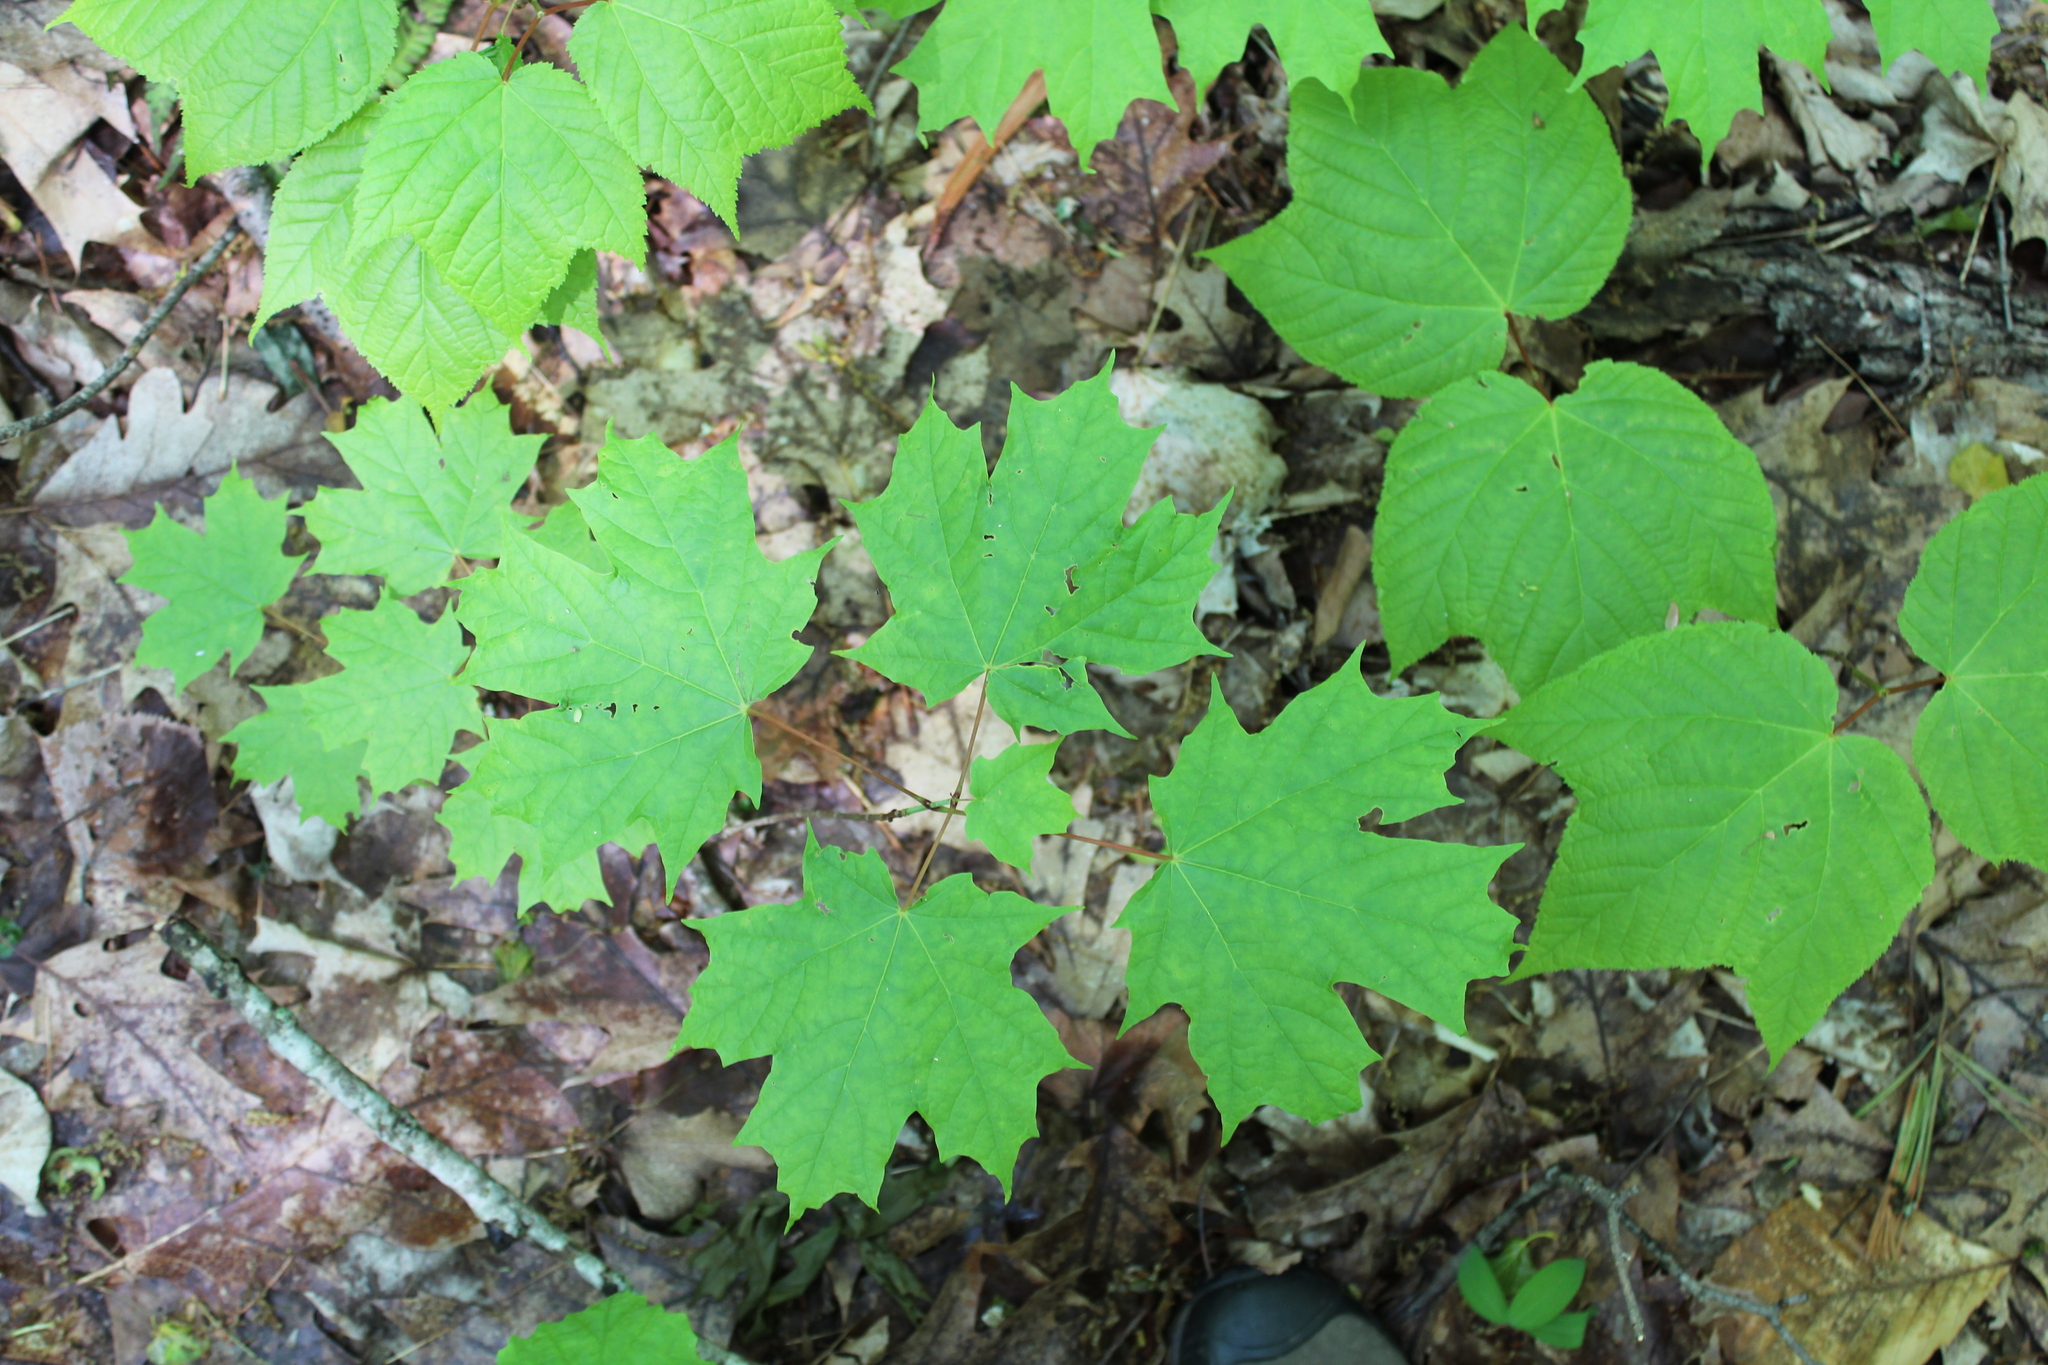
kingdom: Plantae
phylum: Tracheophyta
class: Magnoliopsida
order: Sapindales
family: Sapindaceae
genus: Acer
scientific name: Acer saccharum
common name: Sugar maple
